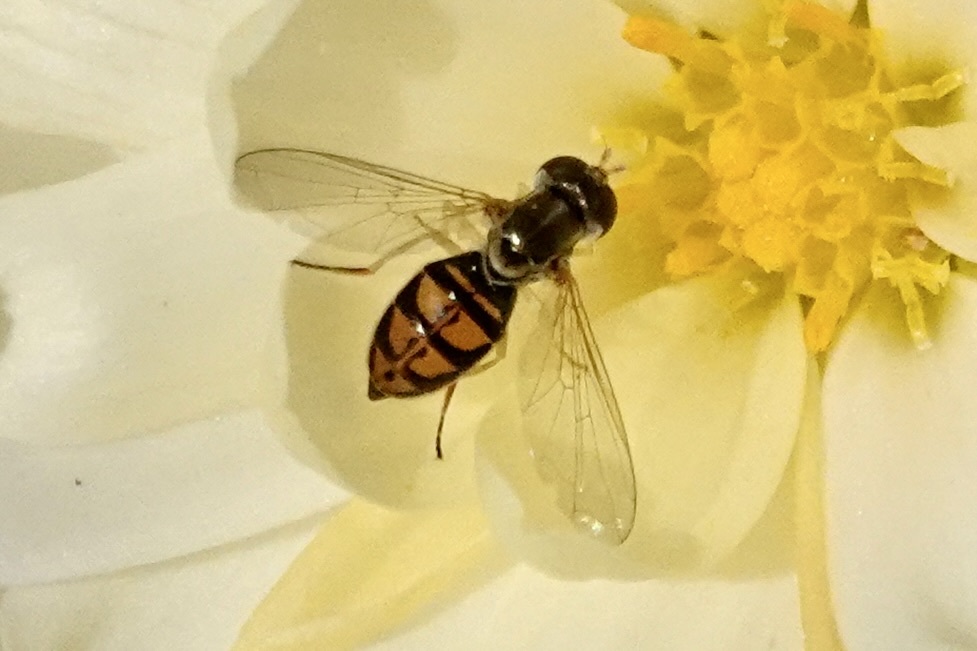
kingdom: Animalia
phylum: Arthropoda
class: Insecta
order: Diptera
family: Syrphidae
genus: Toxomerus
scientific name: Toxomerus marginatus
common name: Syrphid fly
